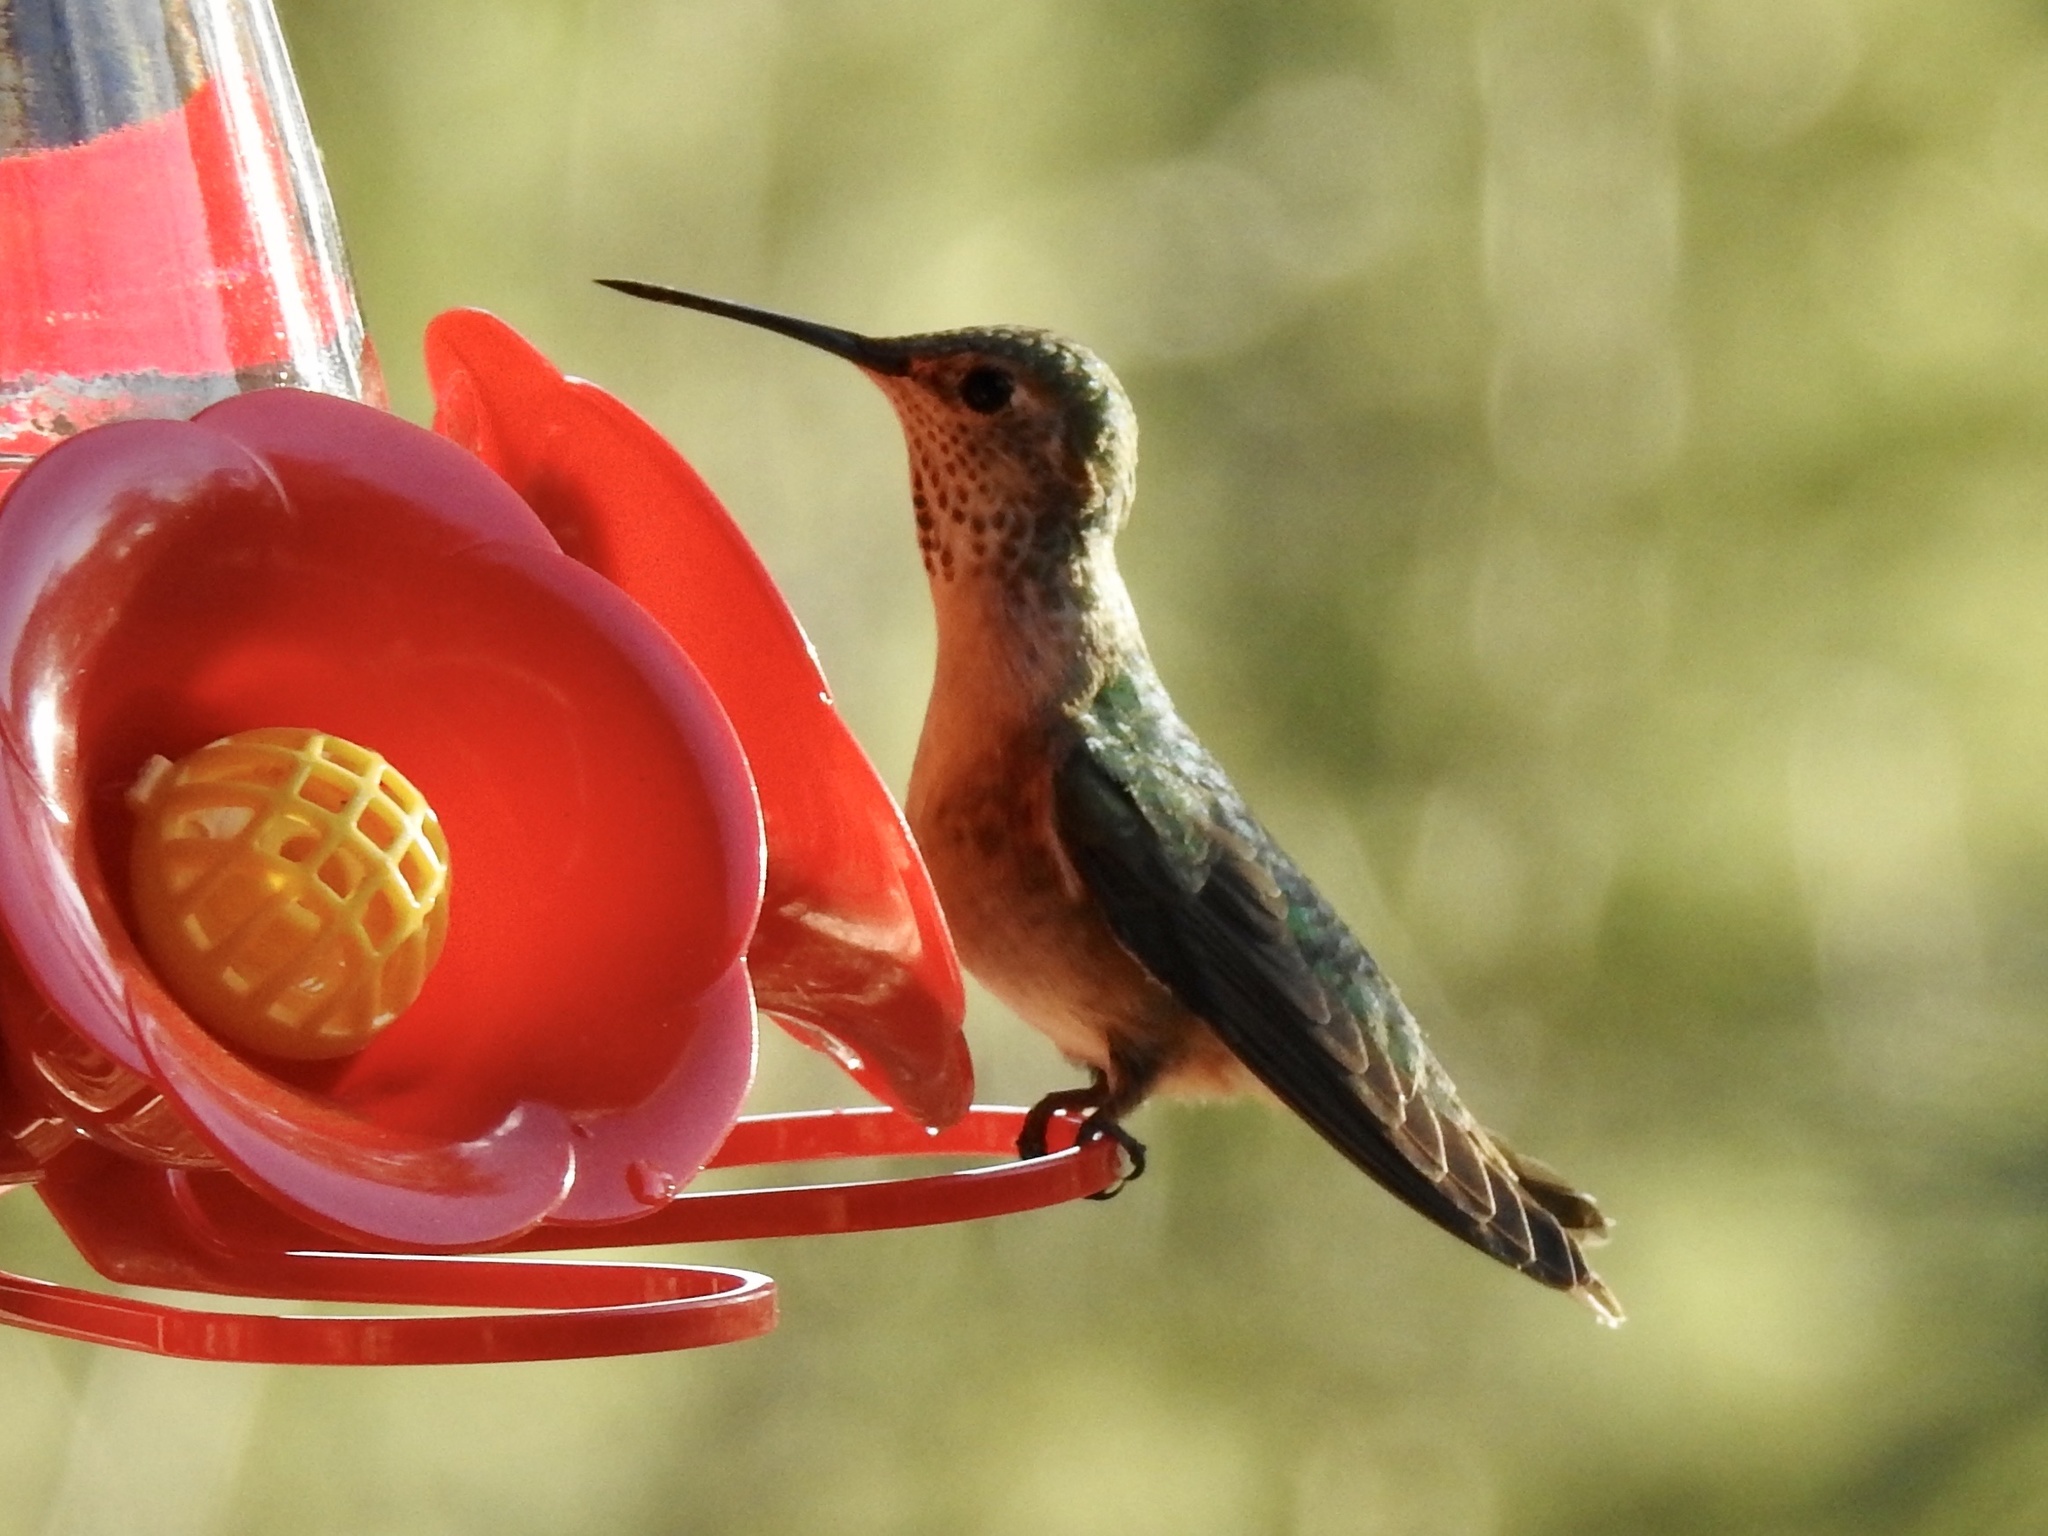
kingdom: Animalia
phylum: Chordata
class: Aves
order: Apodiformes
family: Trochilidae
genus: Selasphorus
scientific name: Selasphorus platycercus
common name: Broad-tailed hummingbird
